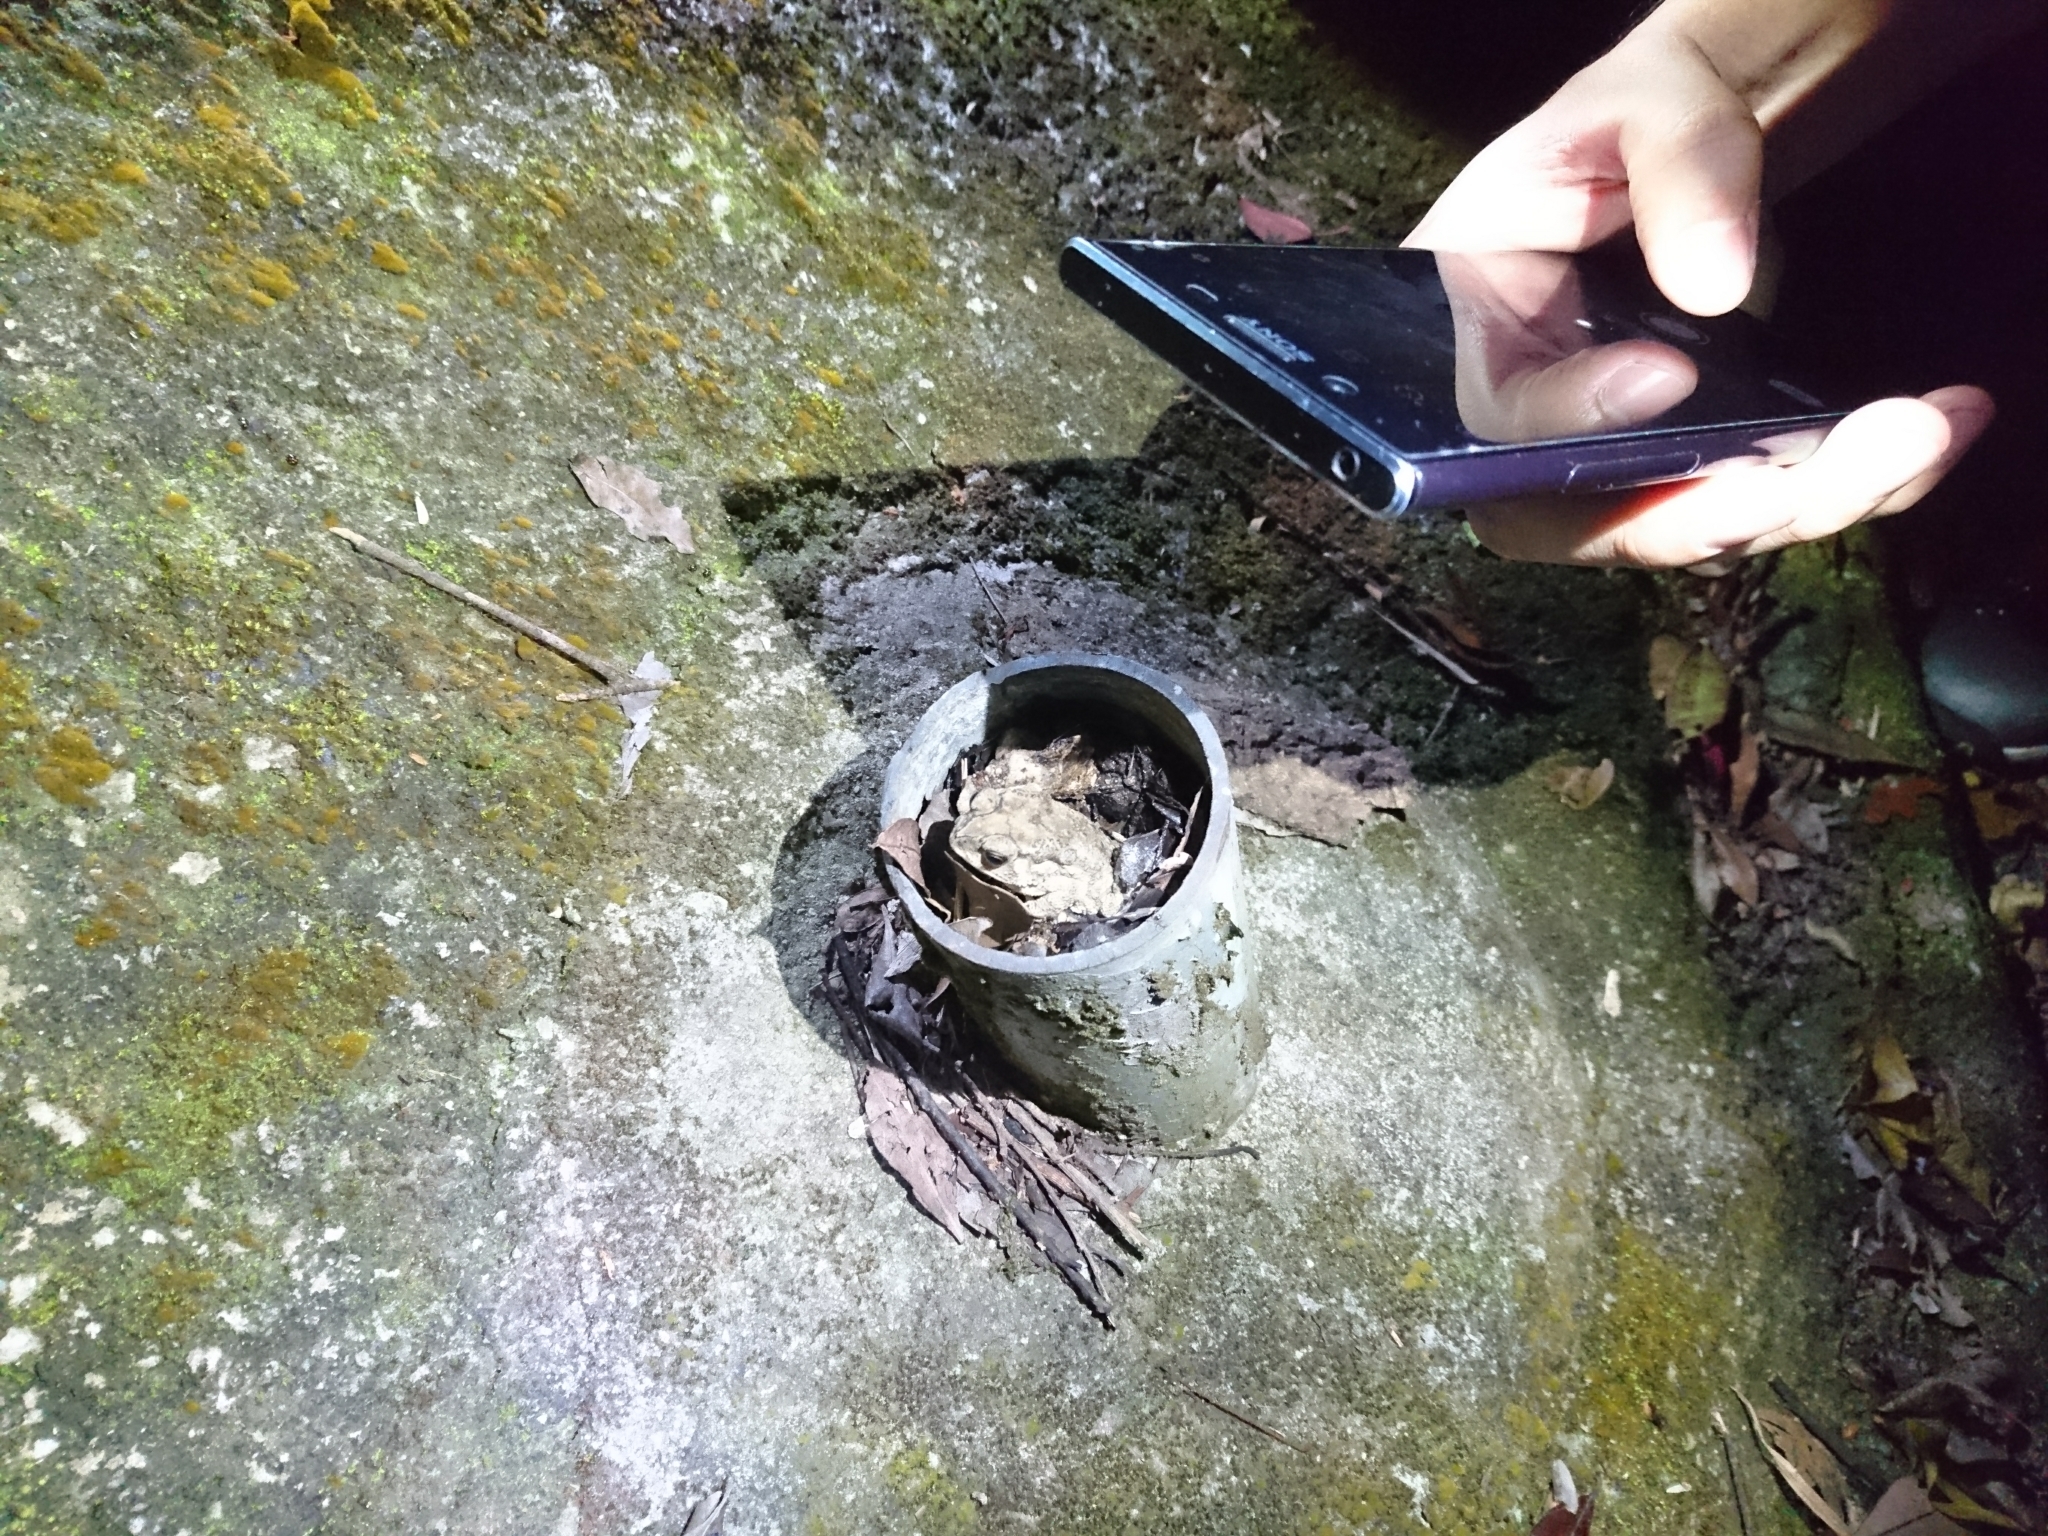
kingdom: Animalia
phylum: Chordata
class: Amphibia
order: Anura
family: Bufonidae
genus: Duttaphrynus
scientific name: Duttaphrynus melanostictus
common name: Common sunda toad
